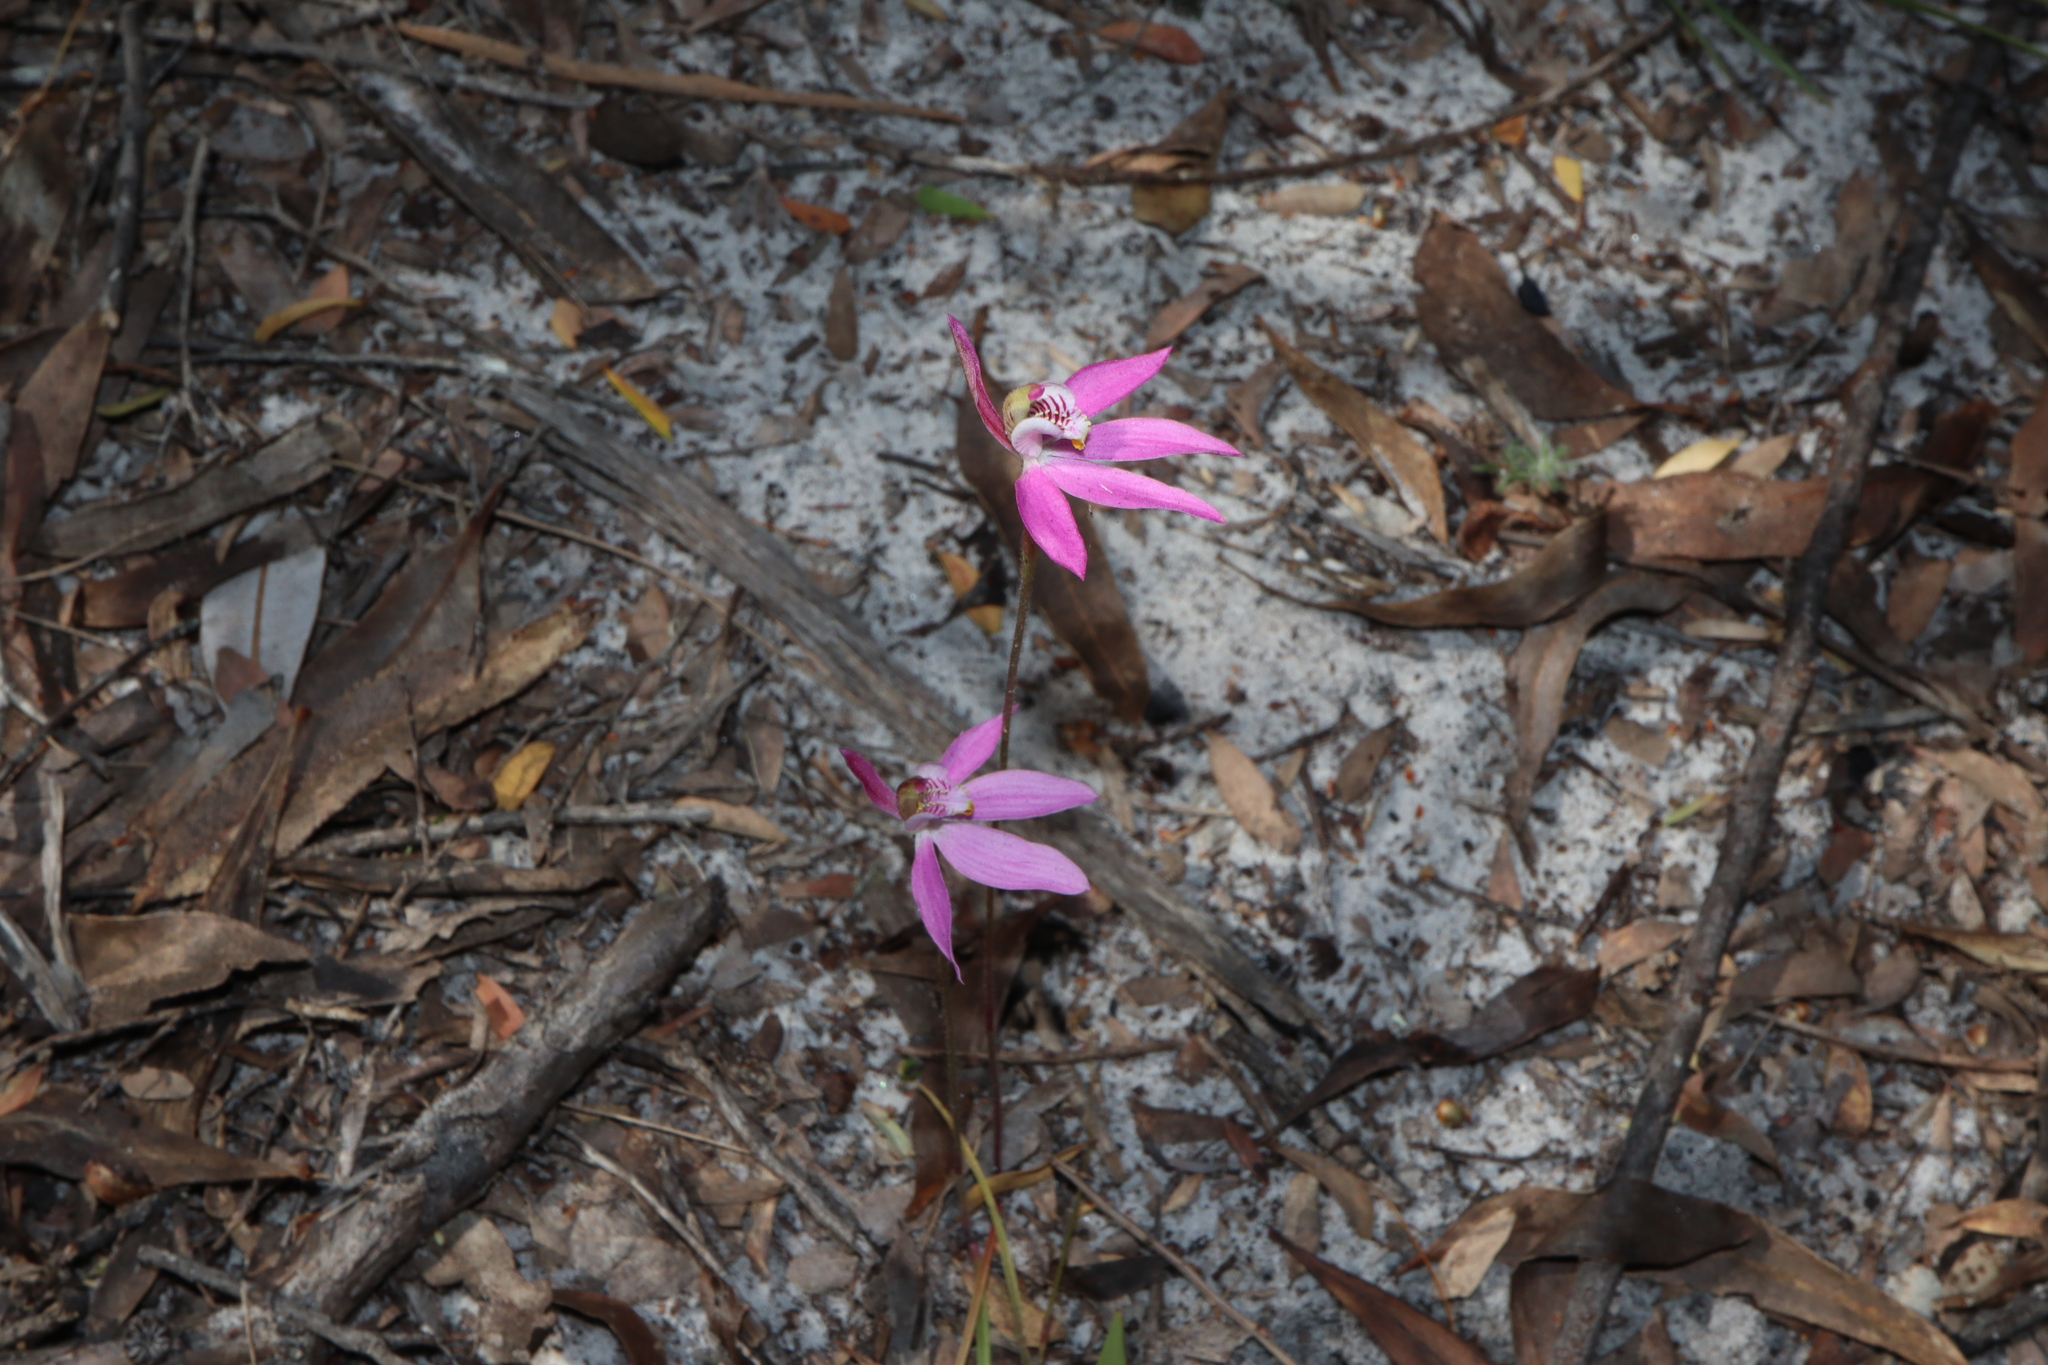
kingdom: Plantae
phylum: Tracheophyta
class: Liliopsida
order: Asparagales
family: Orchidaceae
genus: Caladenia
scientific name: Caladenia carnea
